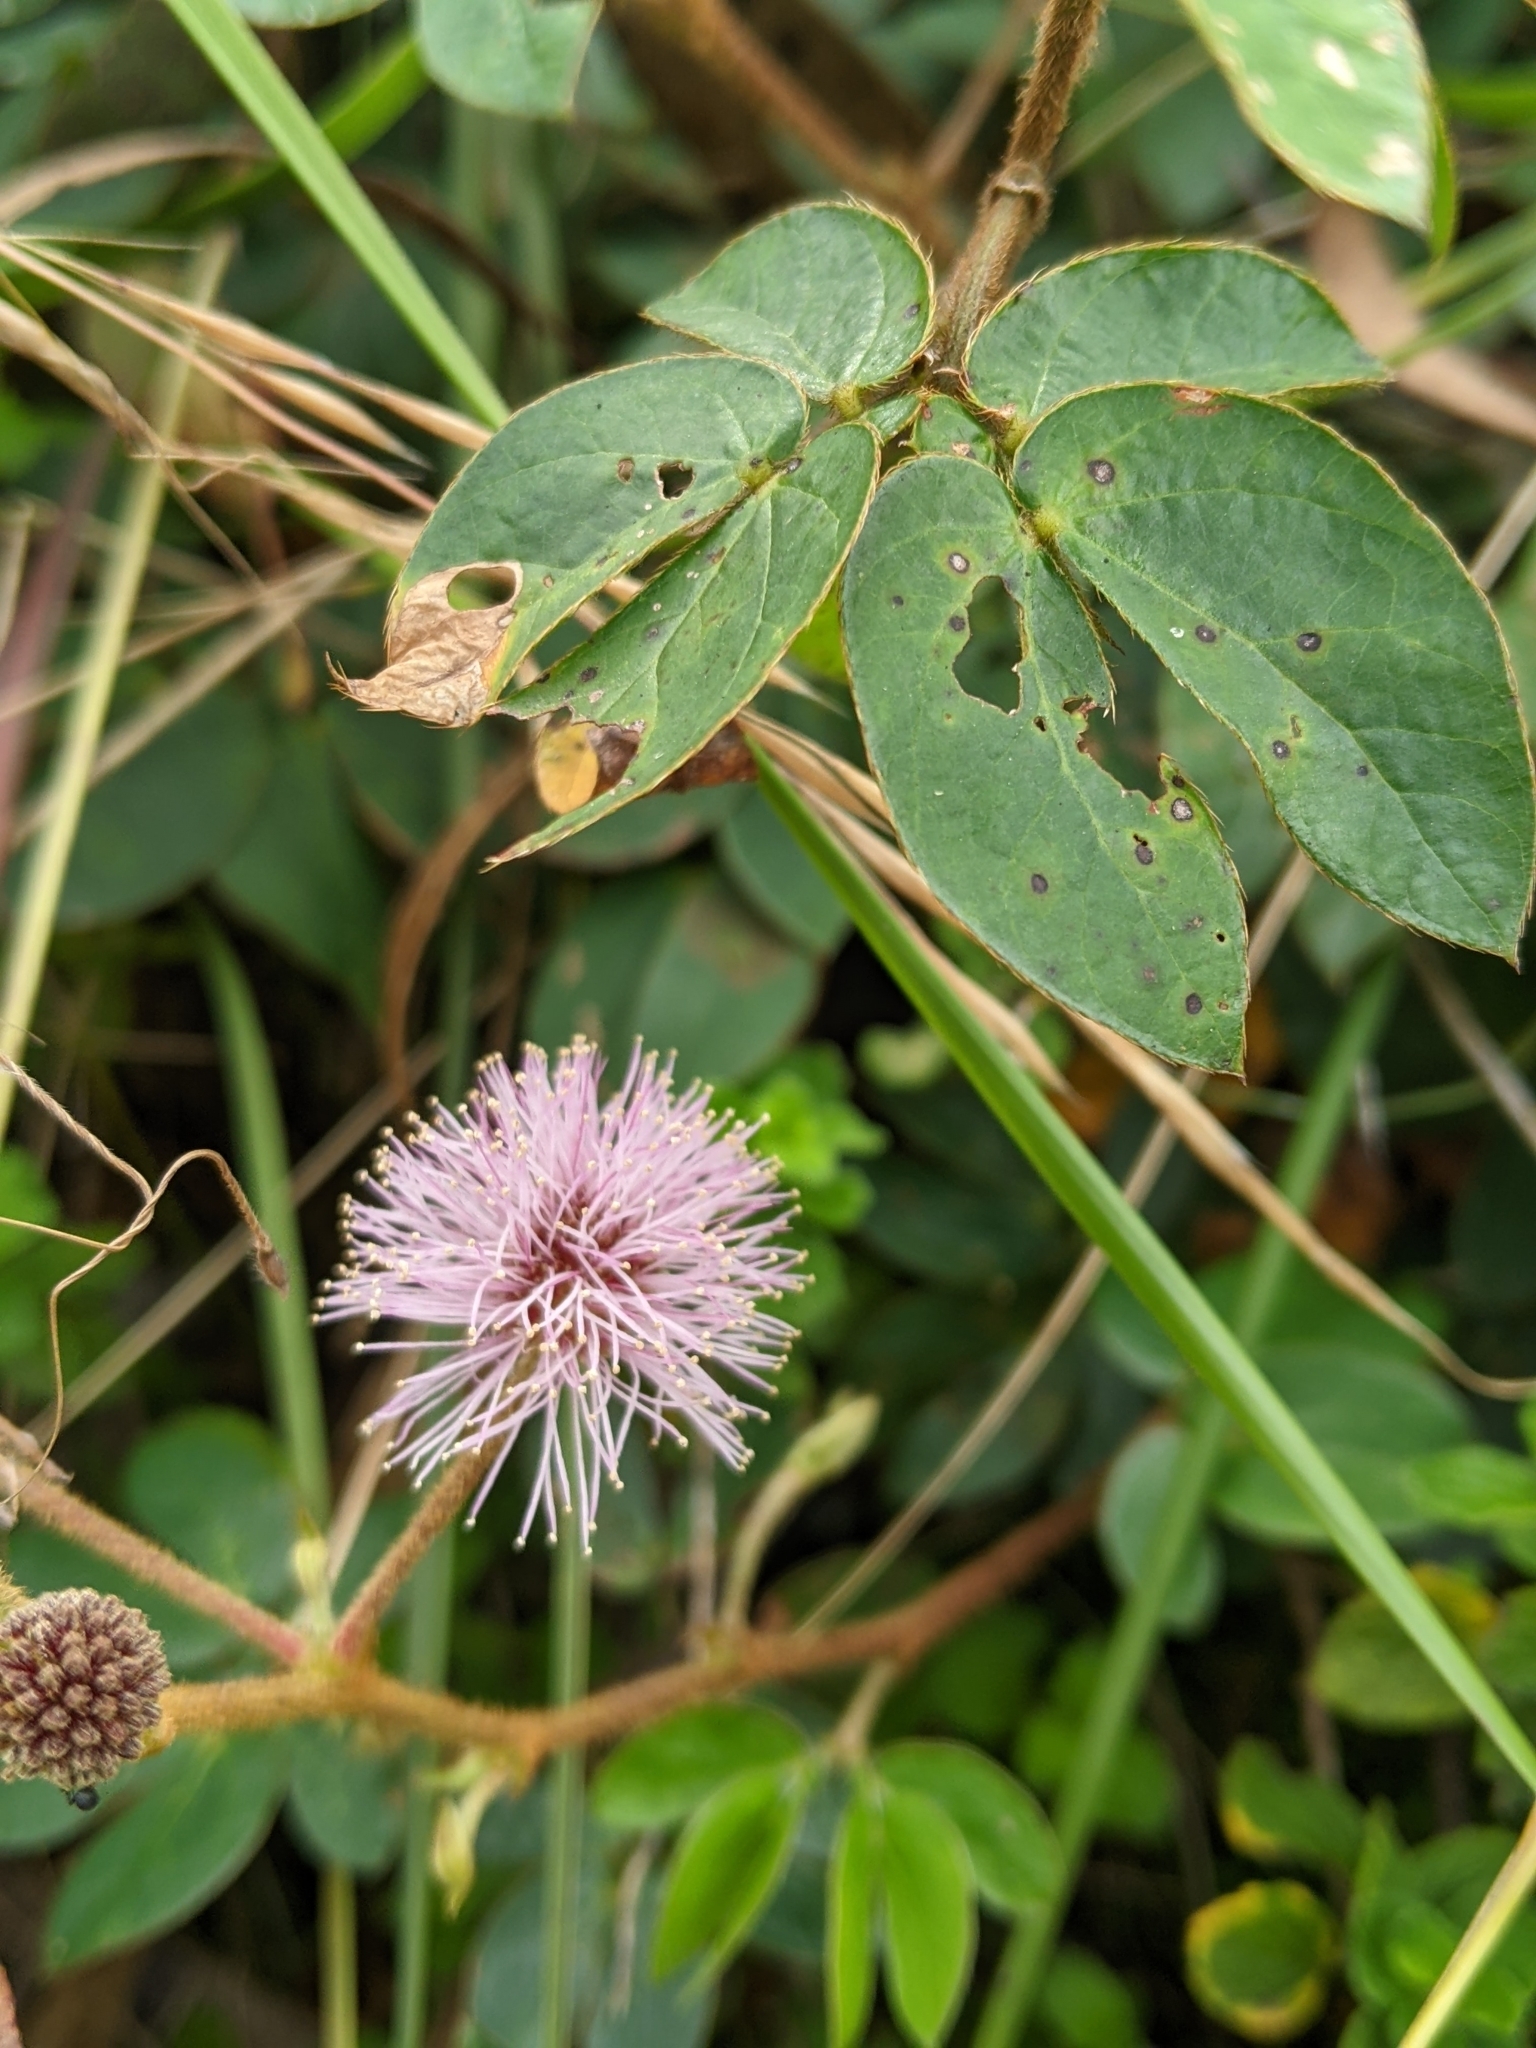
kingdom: Plantae
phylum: Tracheophyta
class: Magnoliopsida
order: Fabales
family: Fabaceae
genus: Mimosa
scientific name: Mimosa albida
